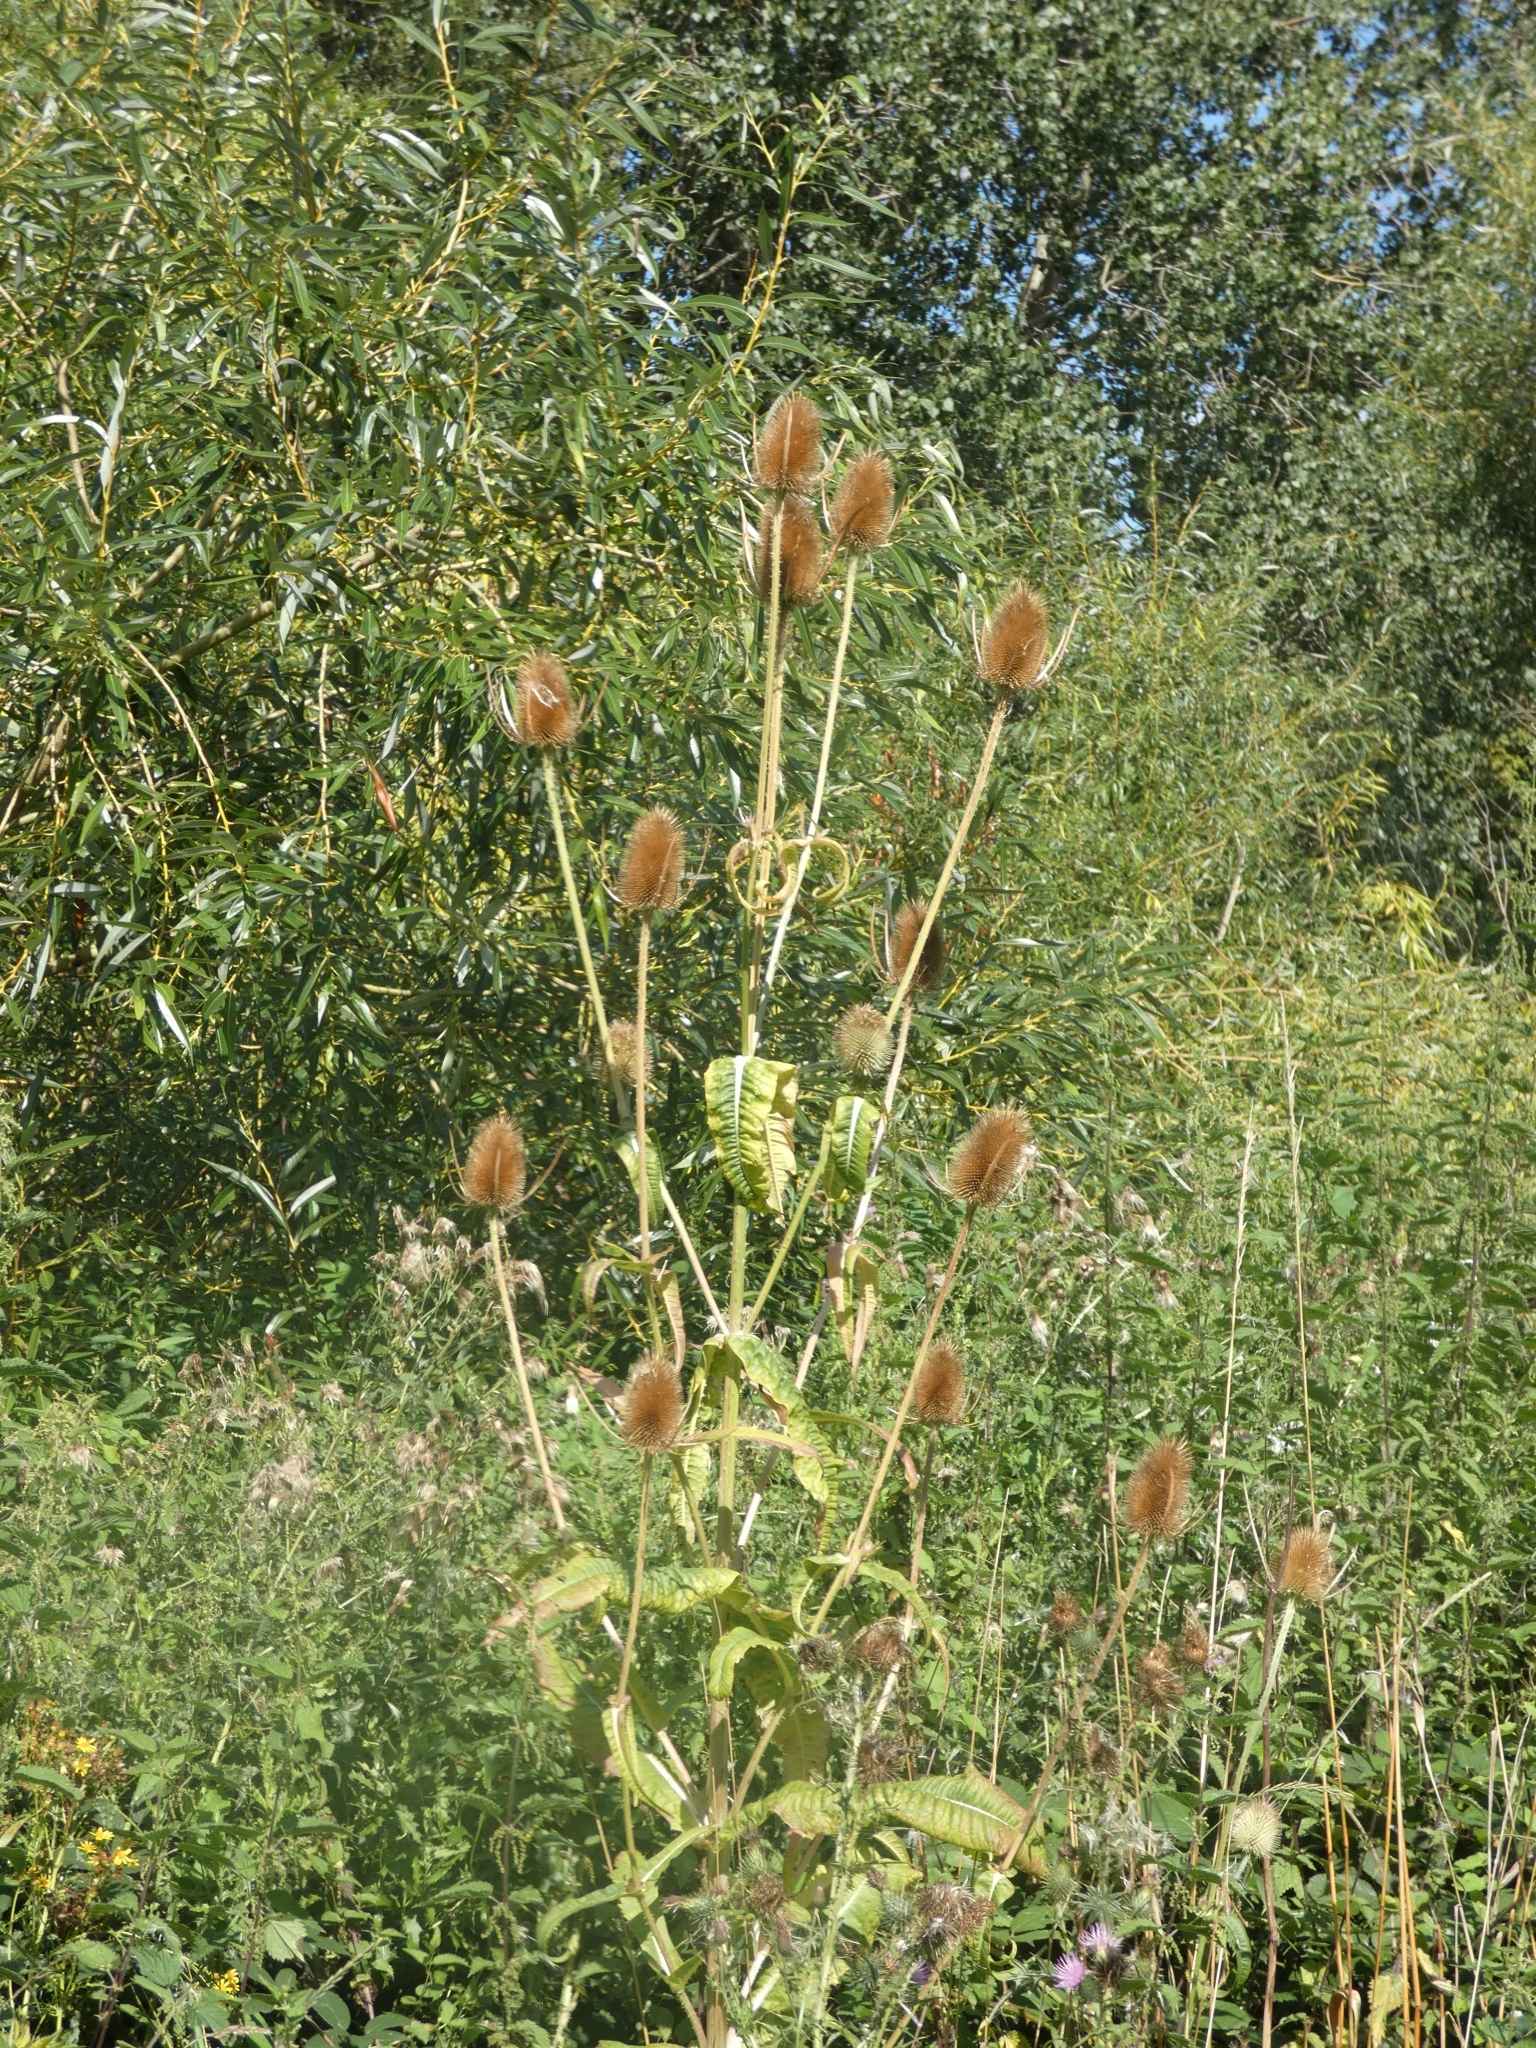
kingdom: Plantae
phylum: Tracheophyta
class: Magnoliopsida
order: Dipsacales
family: Caprifoliaceae
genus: Dipsacus
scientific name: Dipsacus fullonum
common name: Teasel
